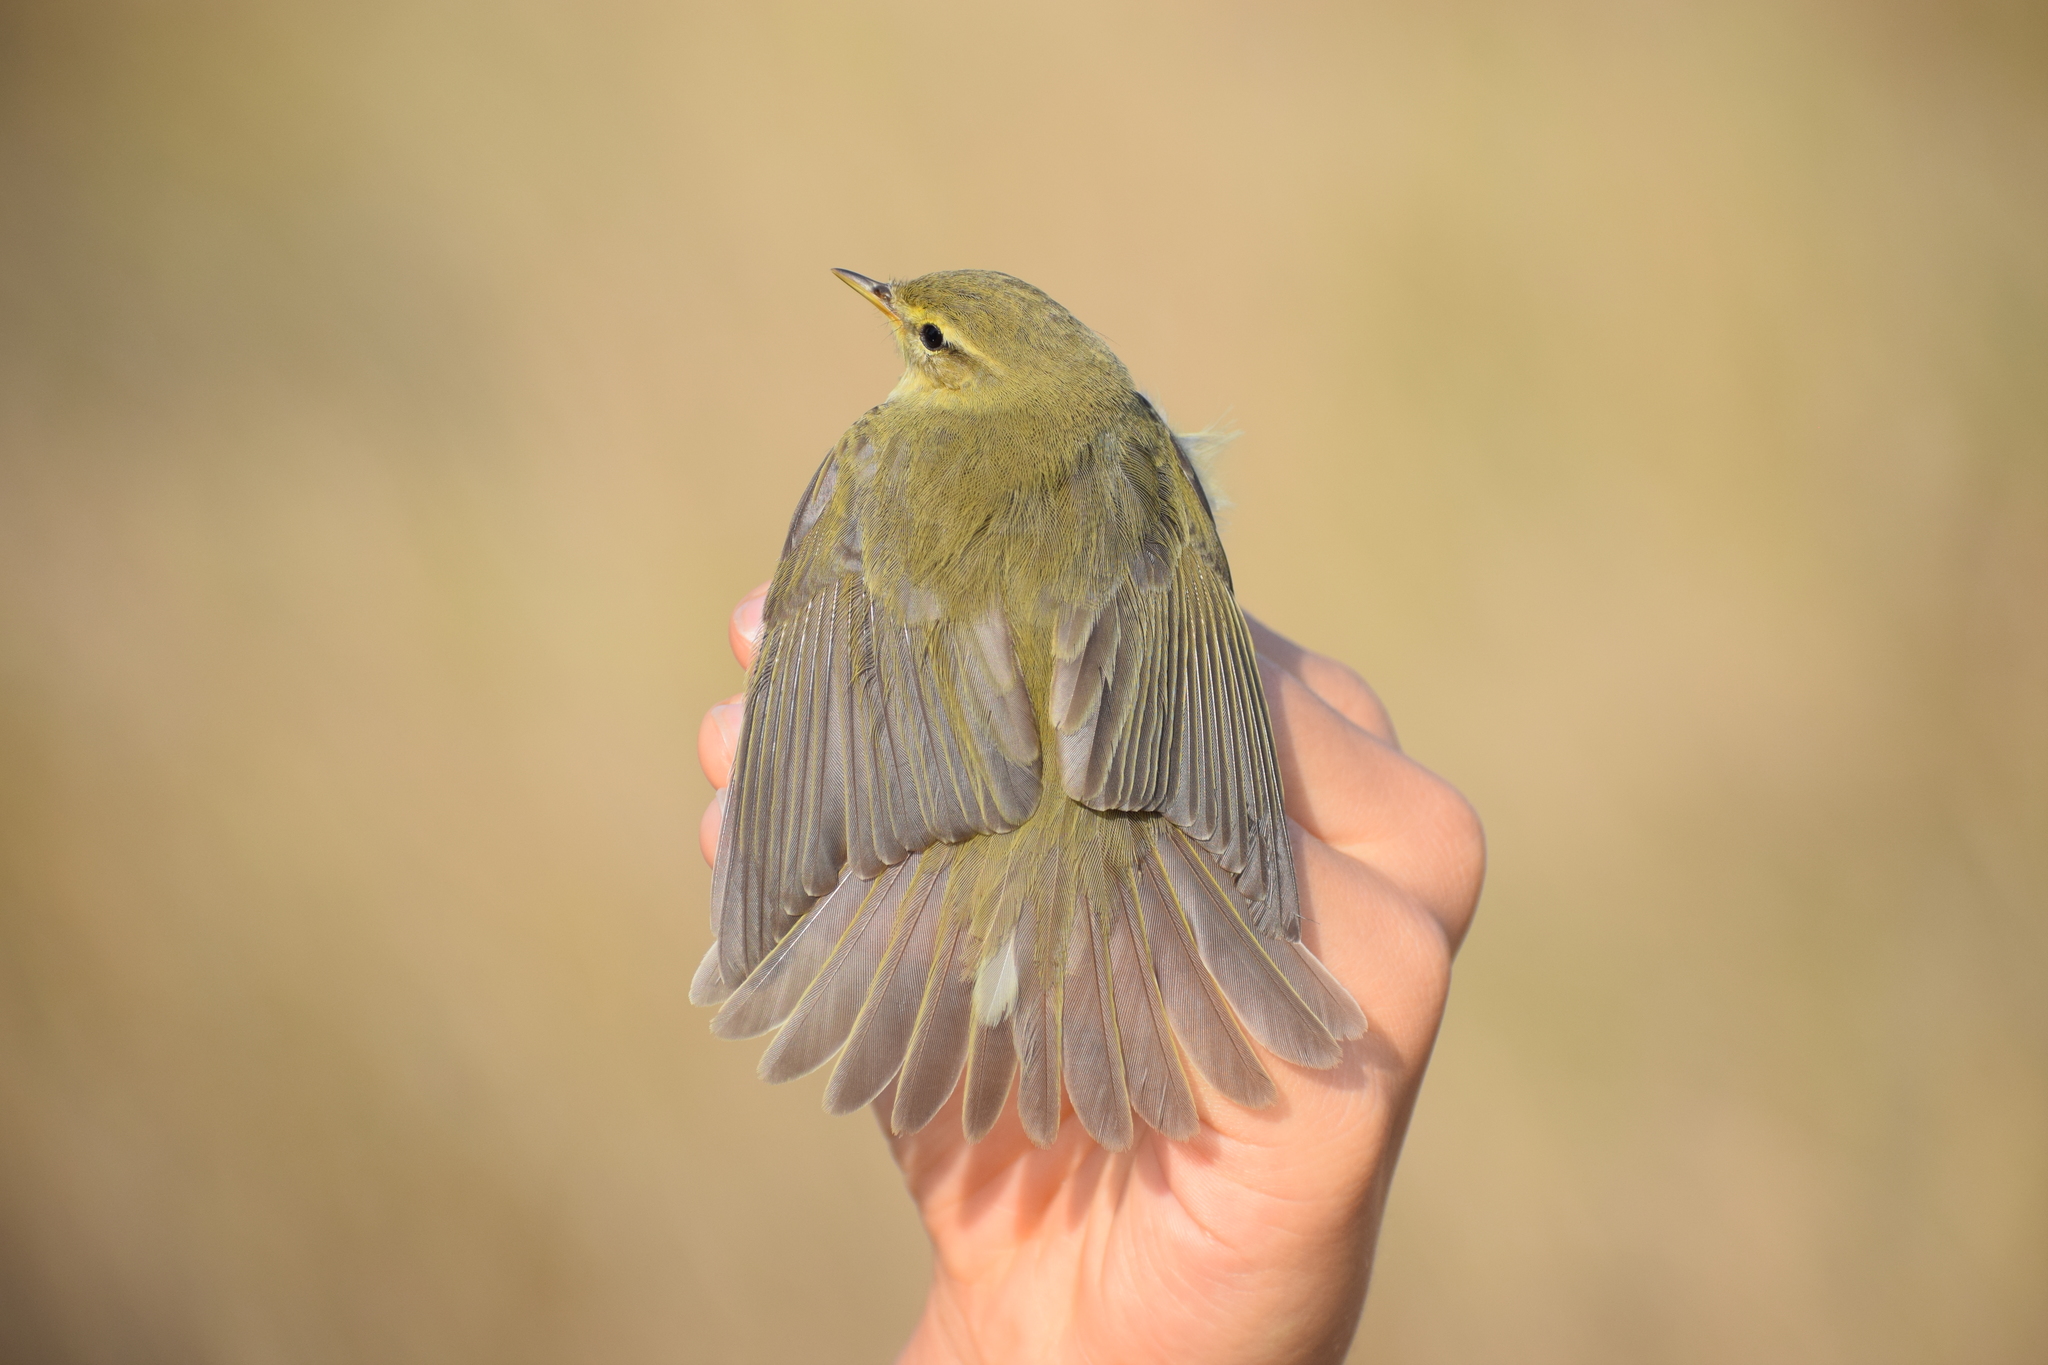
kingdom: Animalia
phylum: Chordata
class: Aves
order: Passeriformes
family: Phylloscopidae
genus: Phylloscopus
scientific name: Phylloscopus trochilus
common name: Willow warbler
